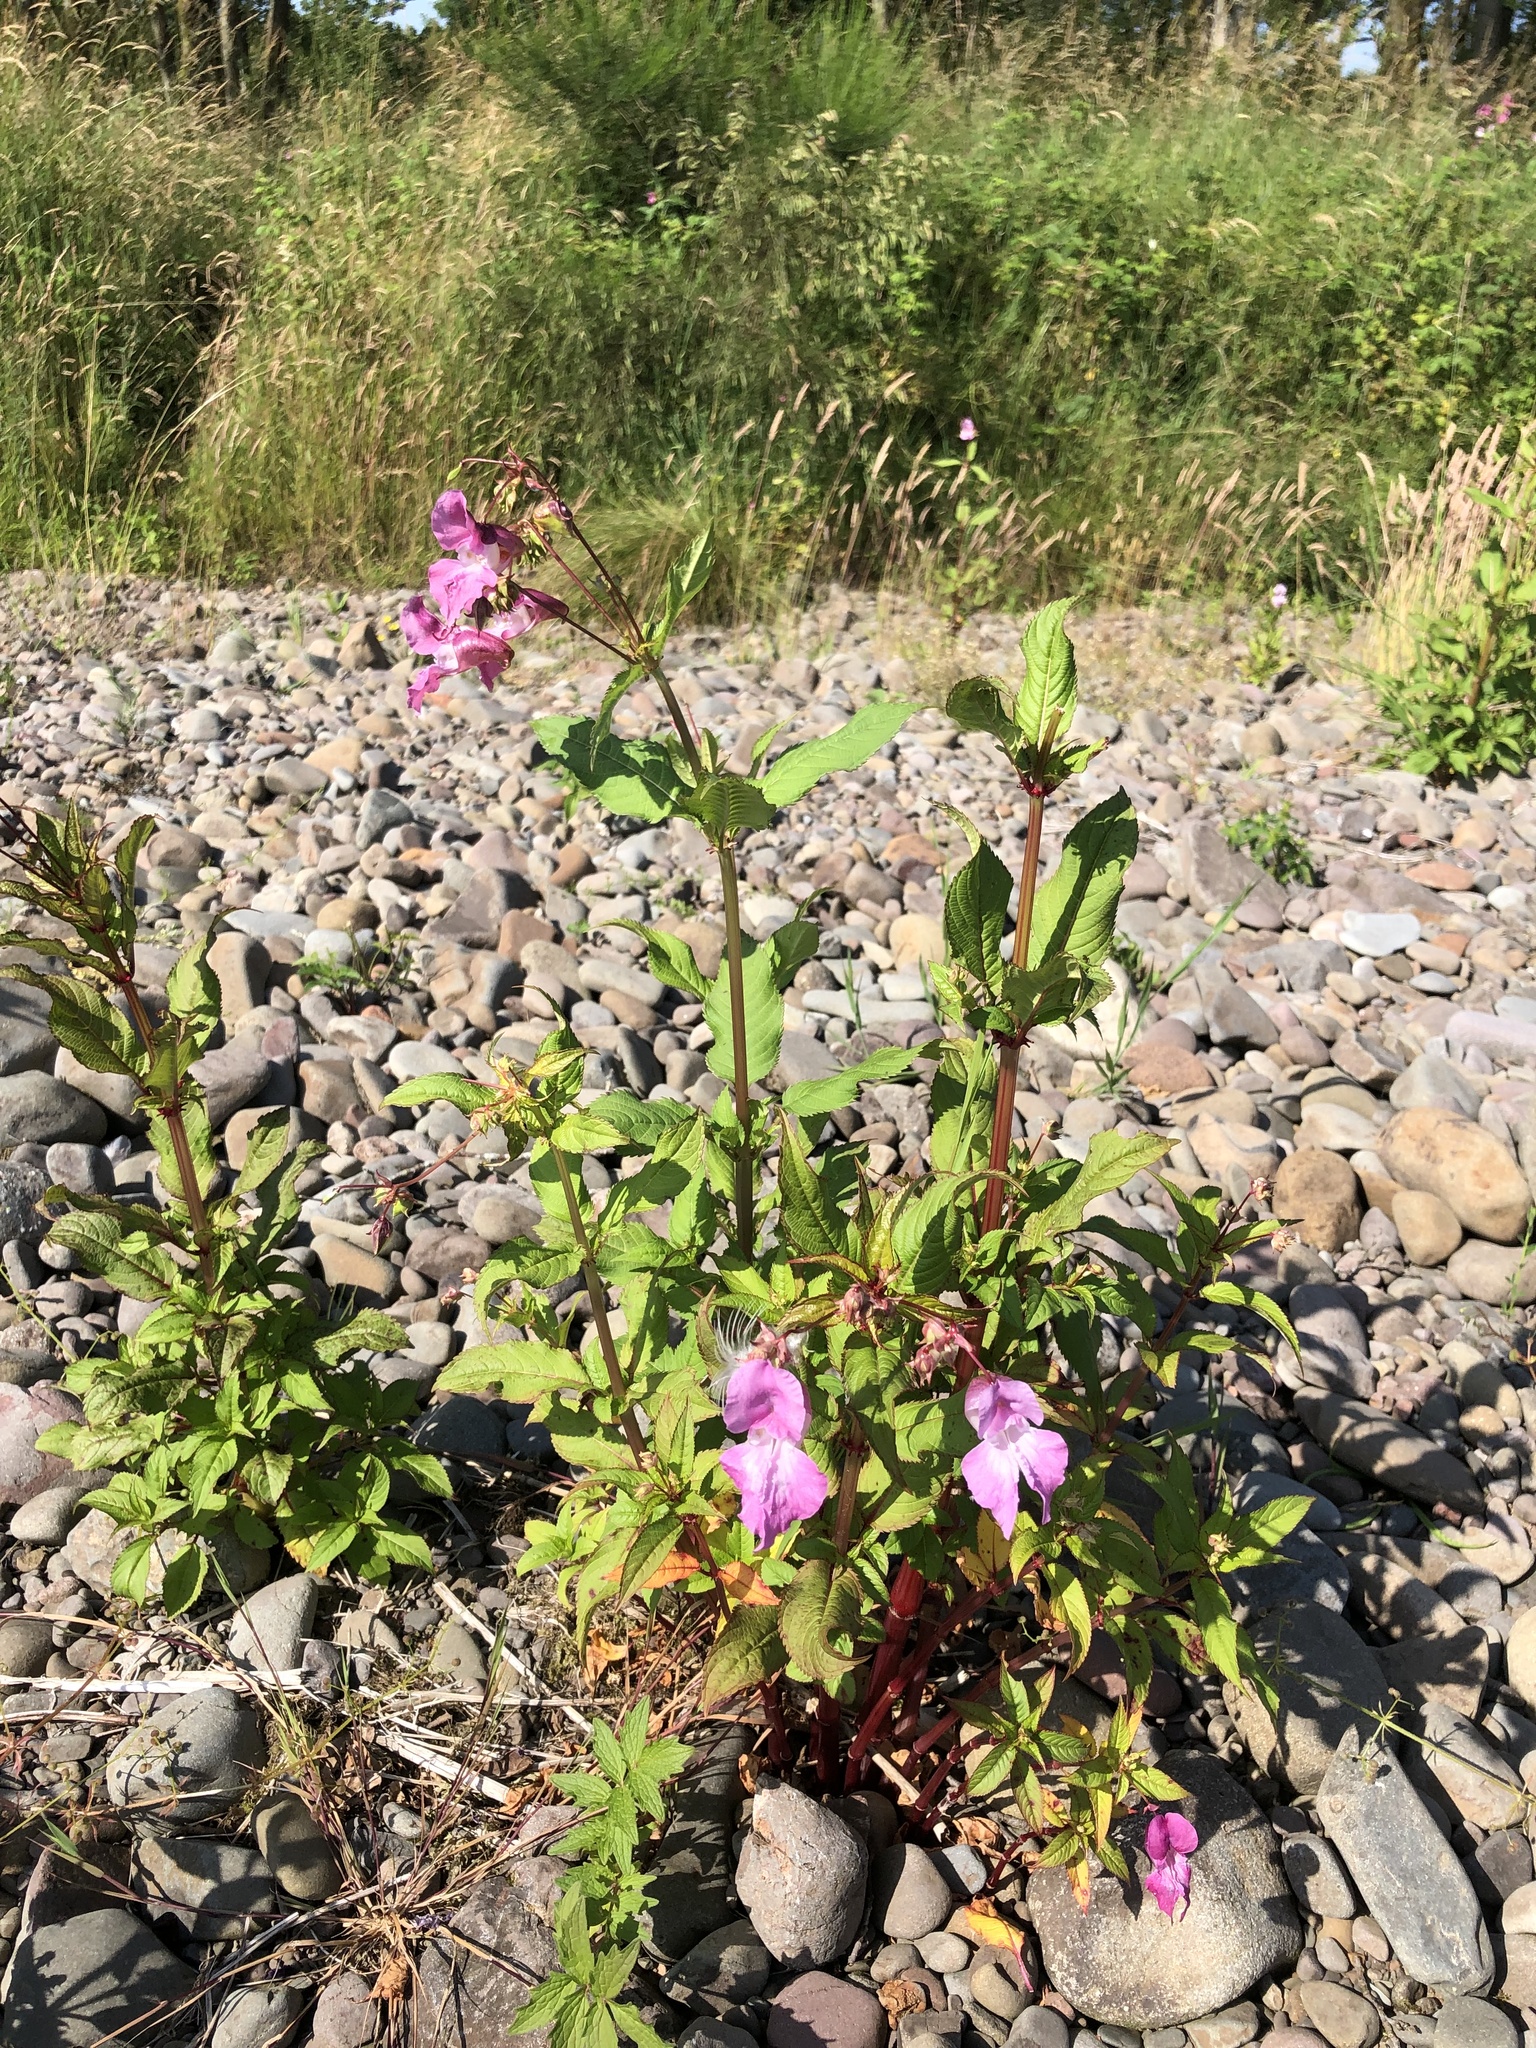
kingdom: Plantae
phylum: Tracheophyta
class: Magnoliopsida
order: Ericales
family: Balsaminaceae
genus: Impatiens
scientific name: Impatiens glandulifera
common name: Himalayan balsam
